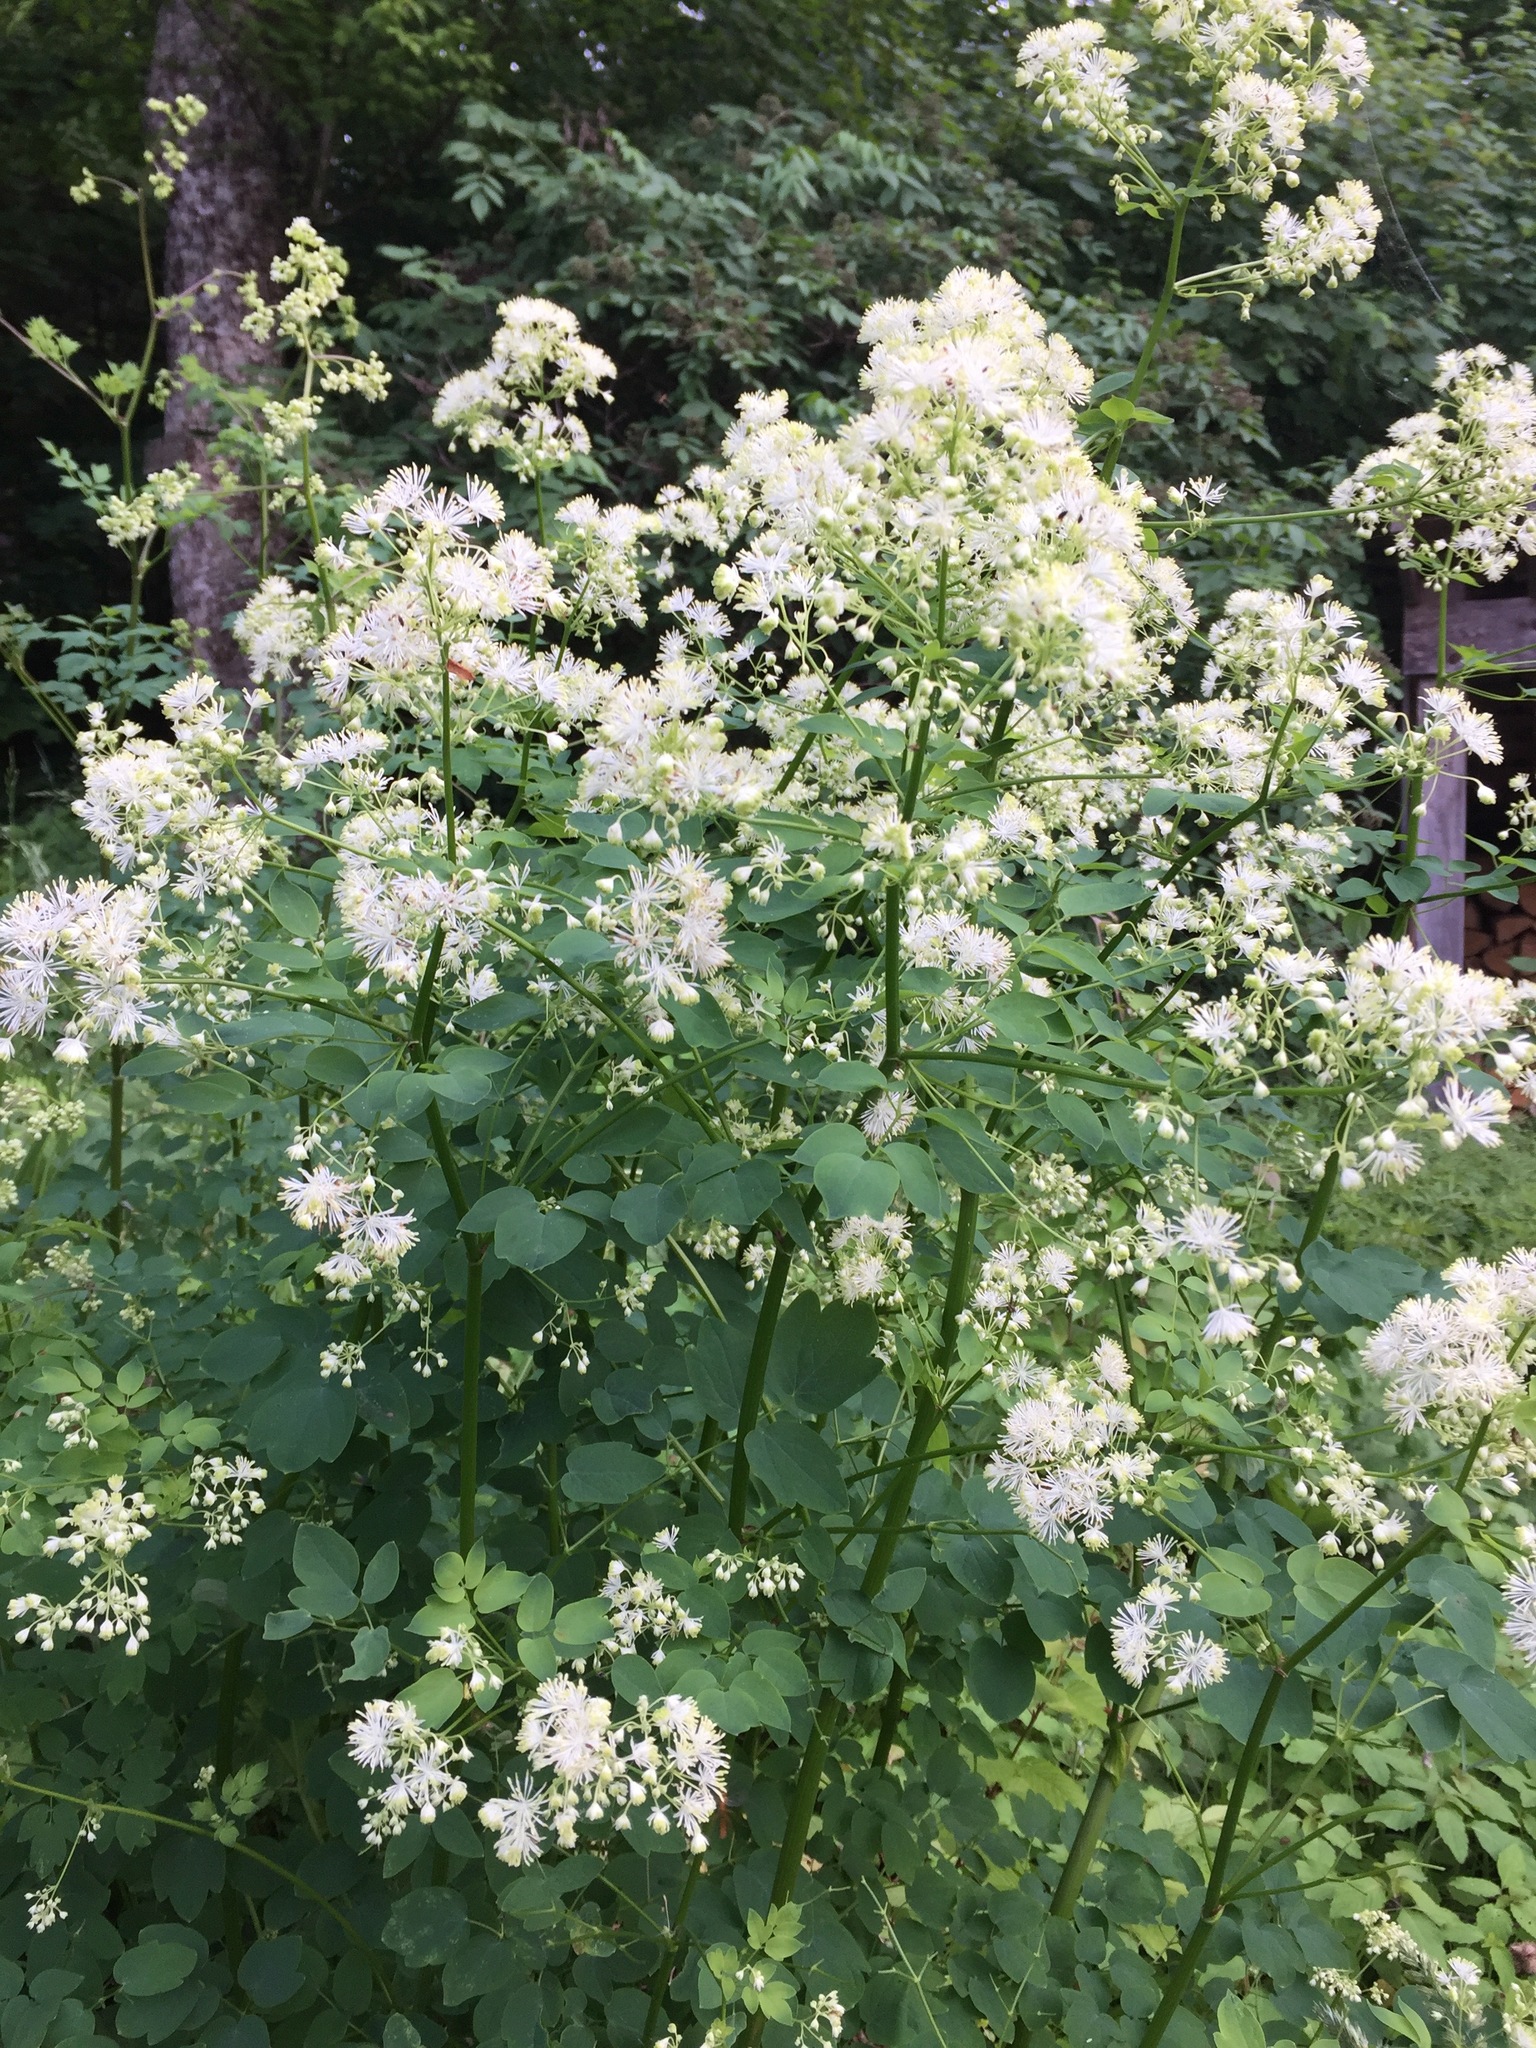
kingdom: Plantae
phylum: Tracheophyta
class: Magnoliopsida
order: Ranunculales
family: Ranunculaceae
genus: Thalictrum
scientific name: Thalictrum pubescens
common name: King-of-the-meadow
